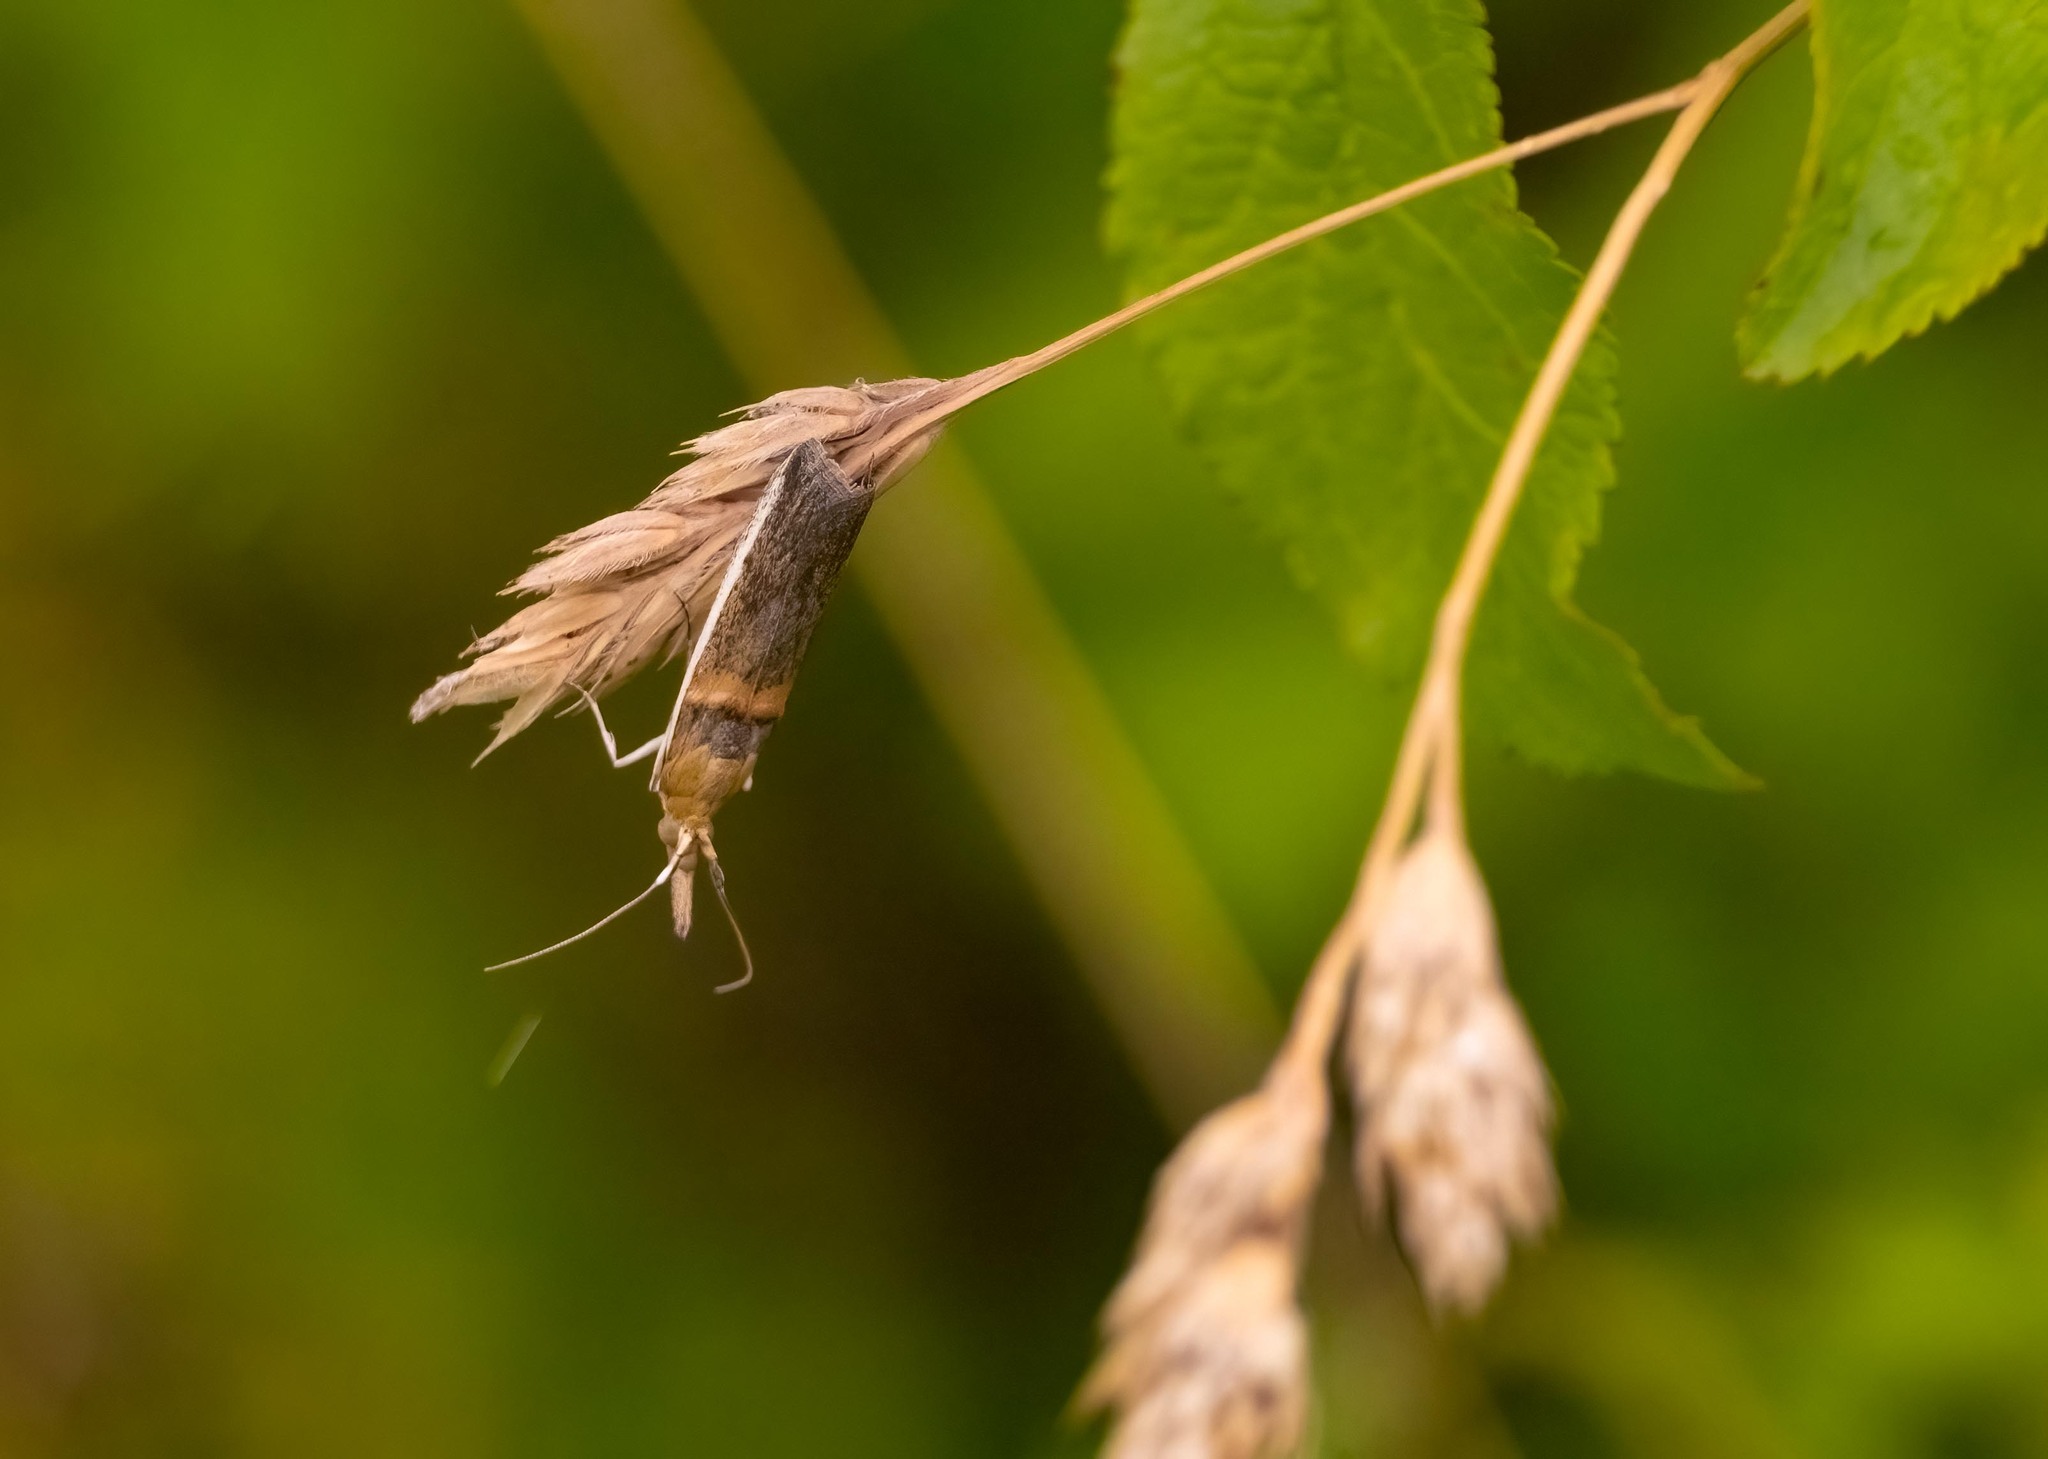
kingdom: Animalia
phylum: Arthropoda
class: Insecta
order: Lepidoptera
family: Pyralidae
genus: Etiella
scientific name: Etiella zinckenella
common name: Gold-banded etiella moth
